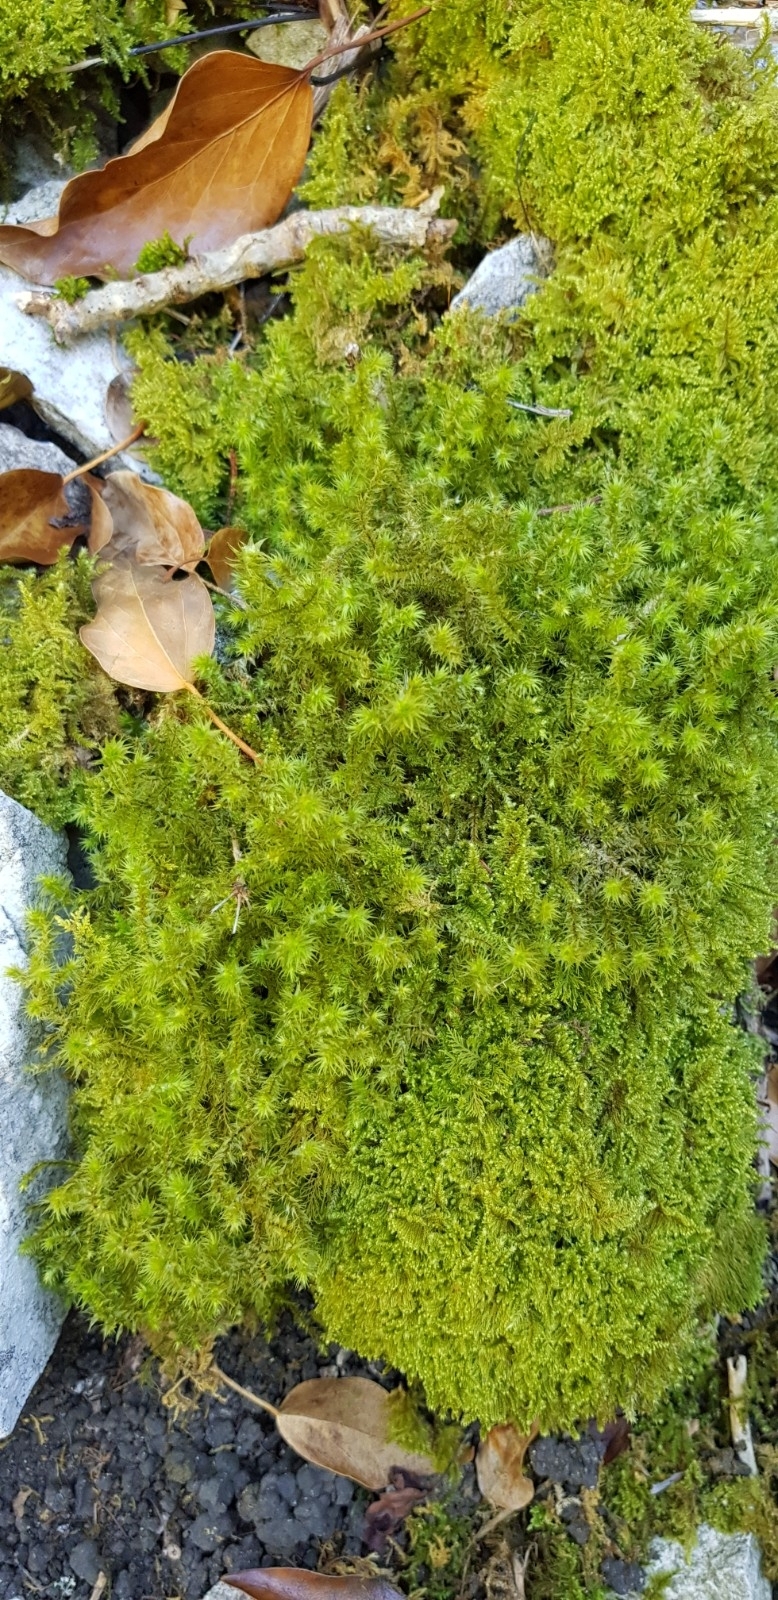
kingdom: Plantae
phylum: Bryophyta
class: Bryopsida
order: Hypnales
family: Hylocomiaceae
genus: Hylocomiadelphus
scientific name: Hylocomiadelphus triquetrus
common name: Rough goose neck moss
